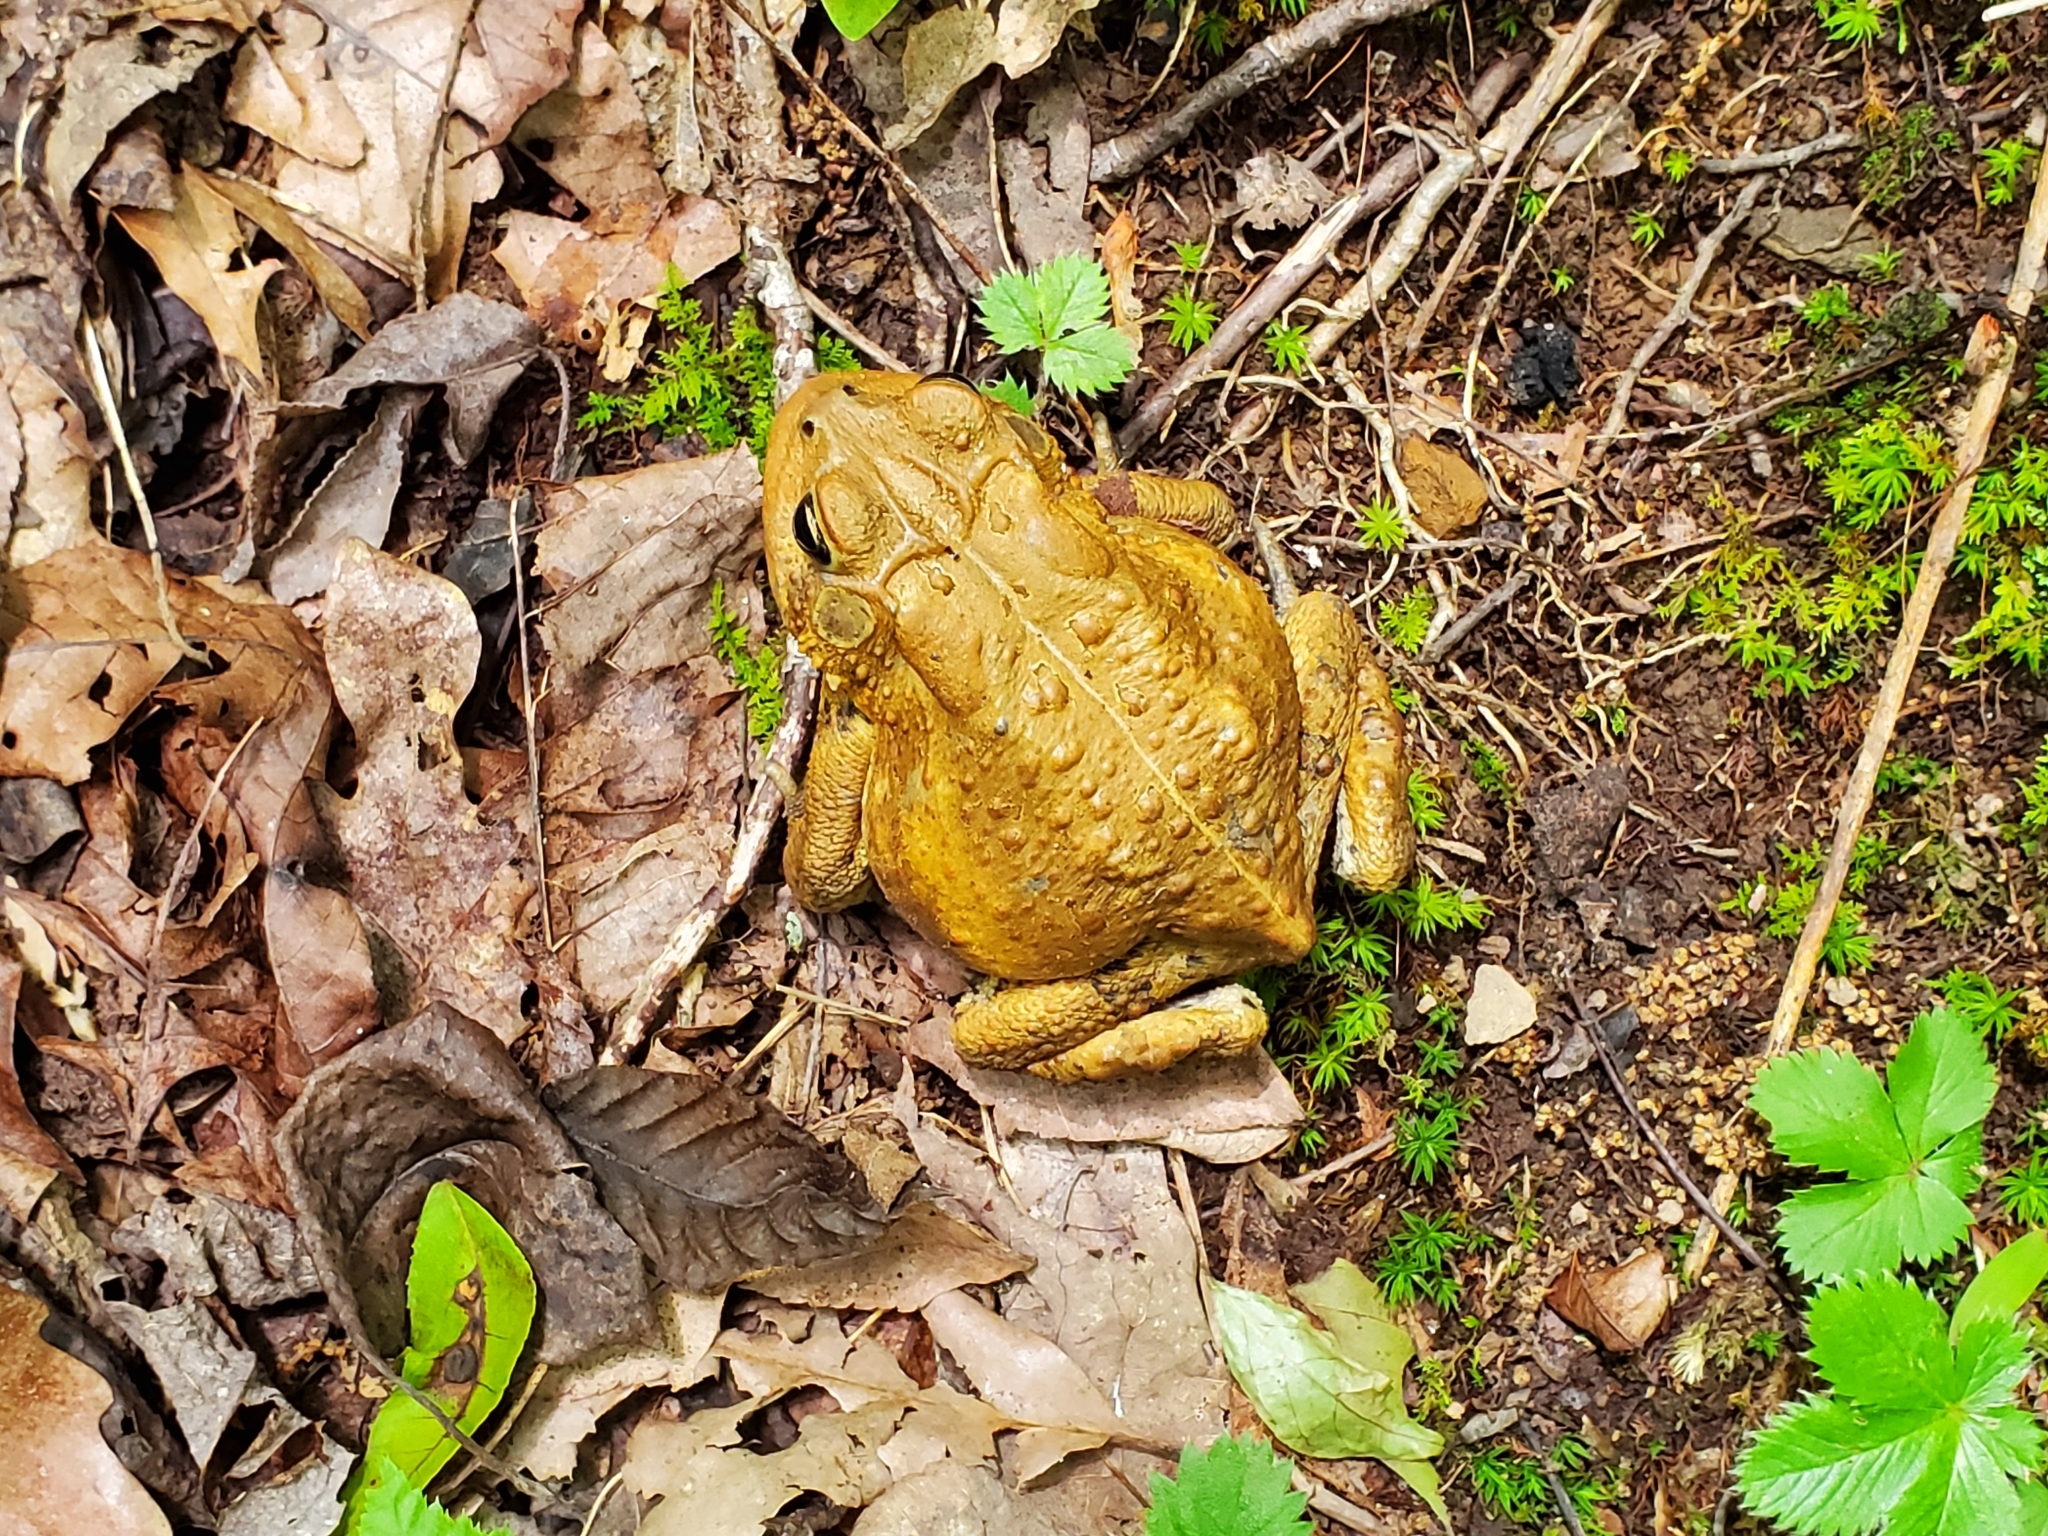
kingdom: Animalia
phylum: Chordata
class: Amphibia
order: Anura
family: Bufonidae
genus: Anaxyrus
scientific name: Anaxyrus americanus
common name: American toad
